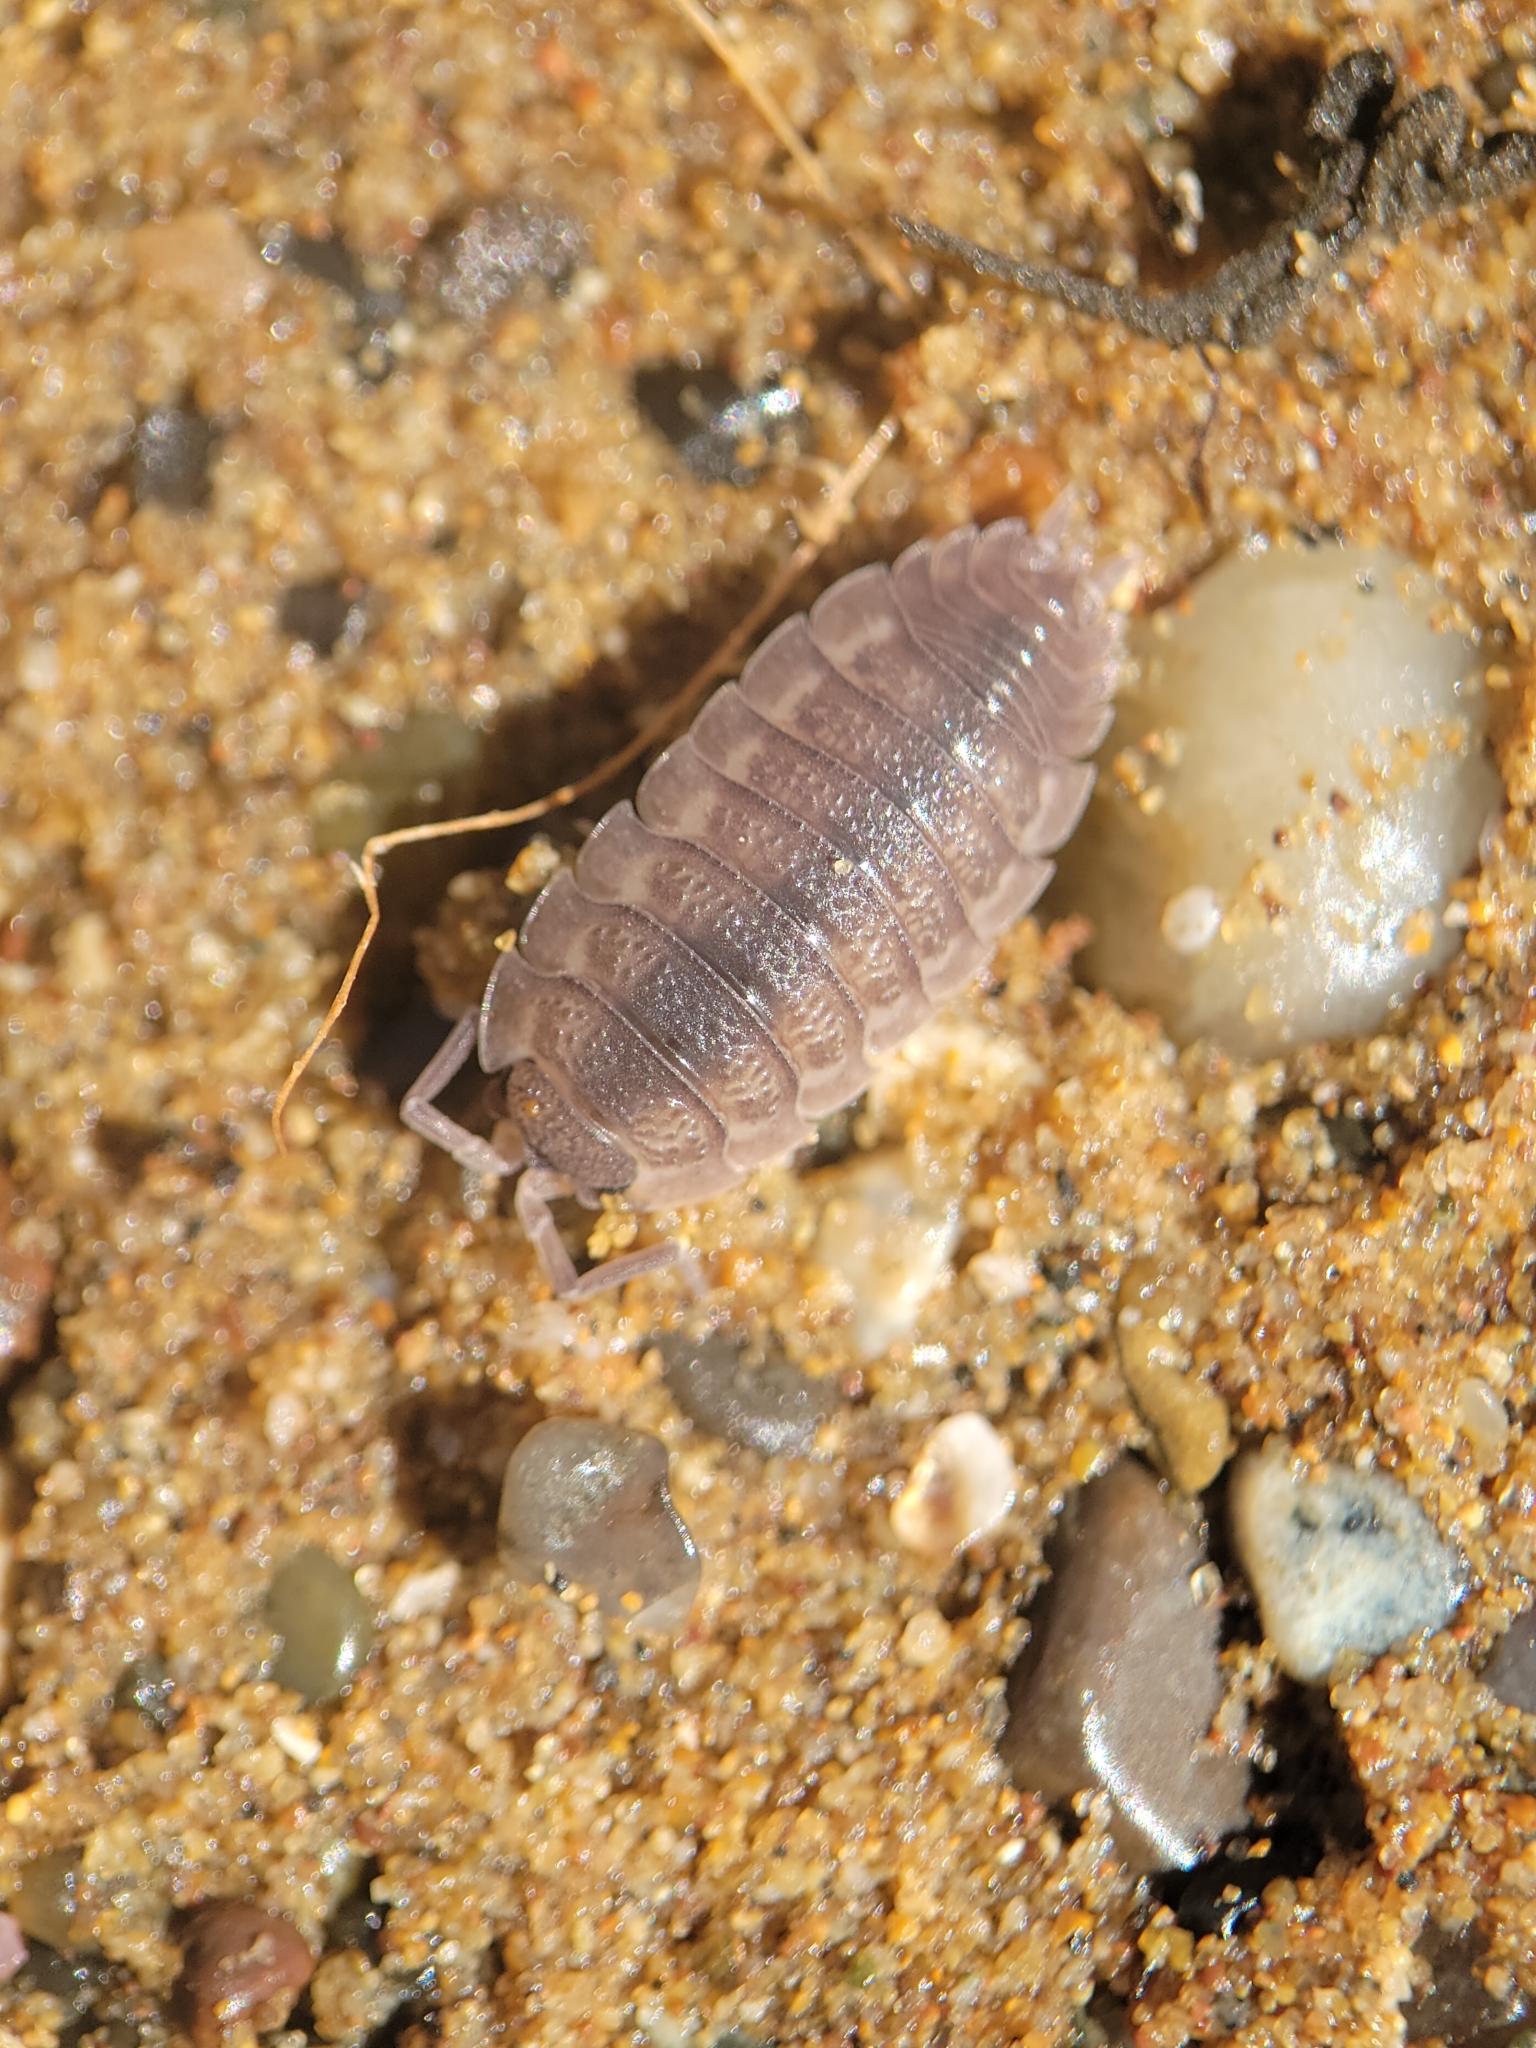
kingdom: Animalia
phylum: Arthropoda
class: Malacostraca
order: Isopoda
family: Porcellionidae
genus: Porcellio
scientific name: Porcellio scaber
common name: Common rough woodlouse
